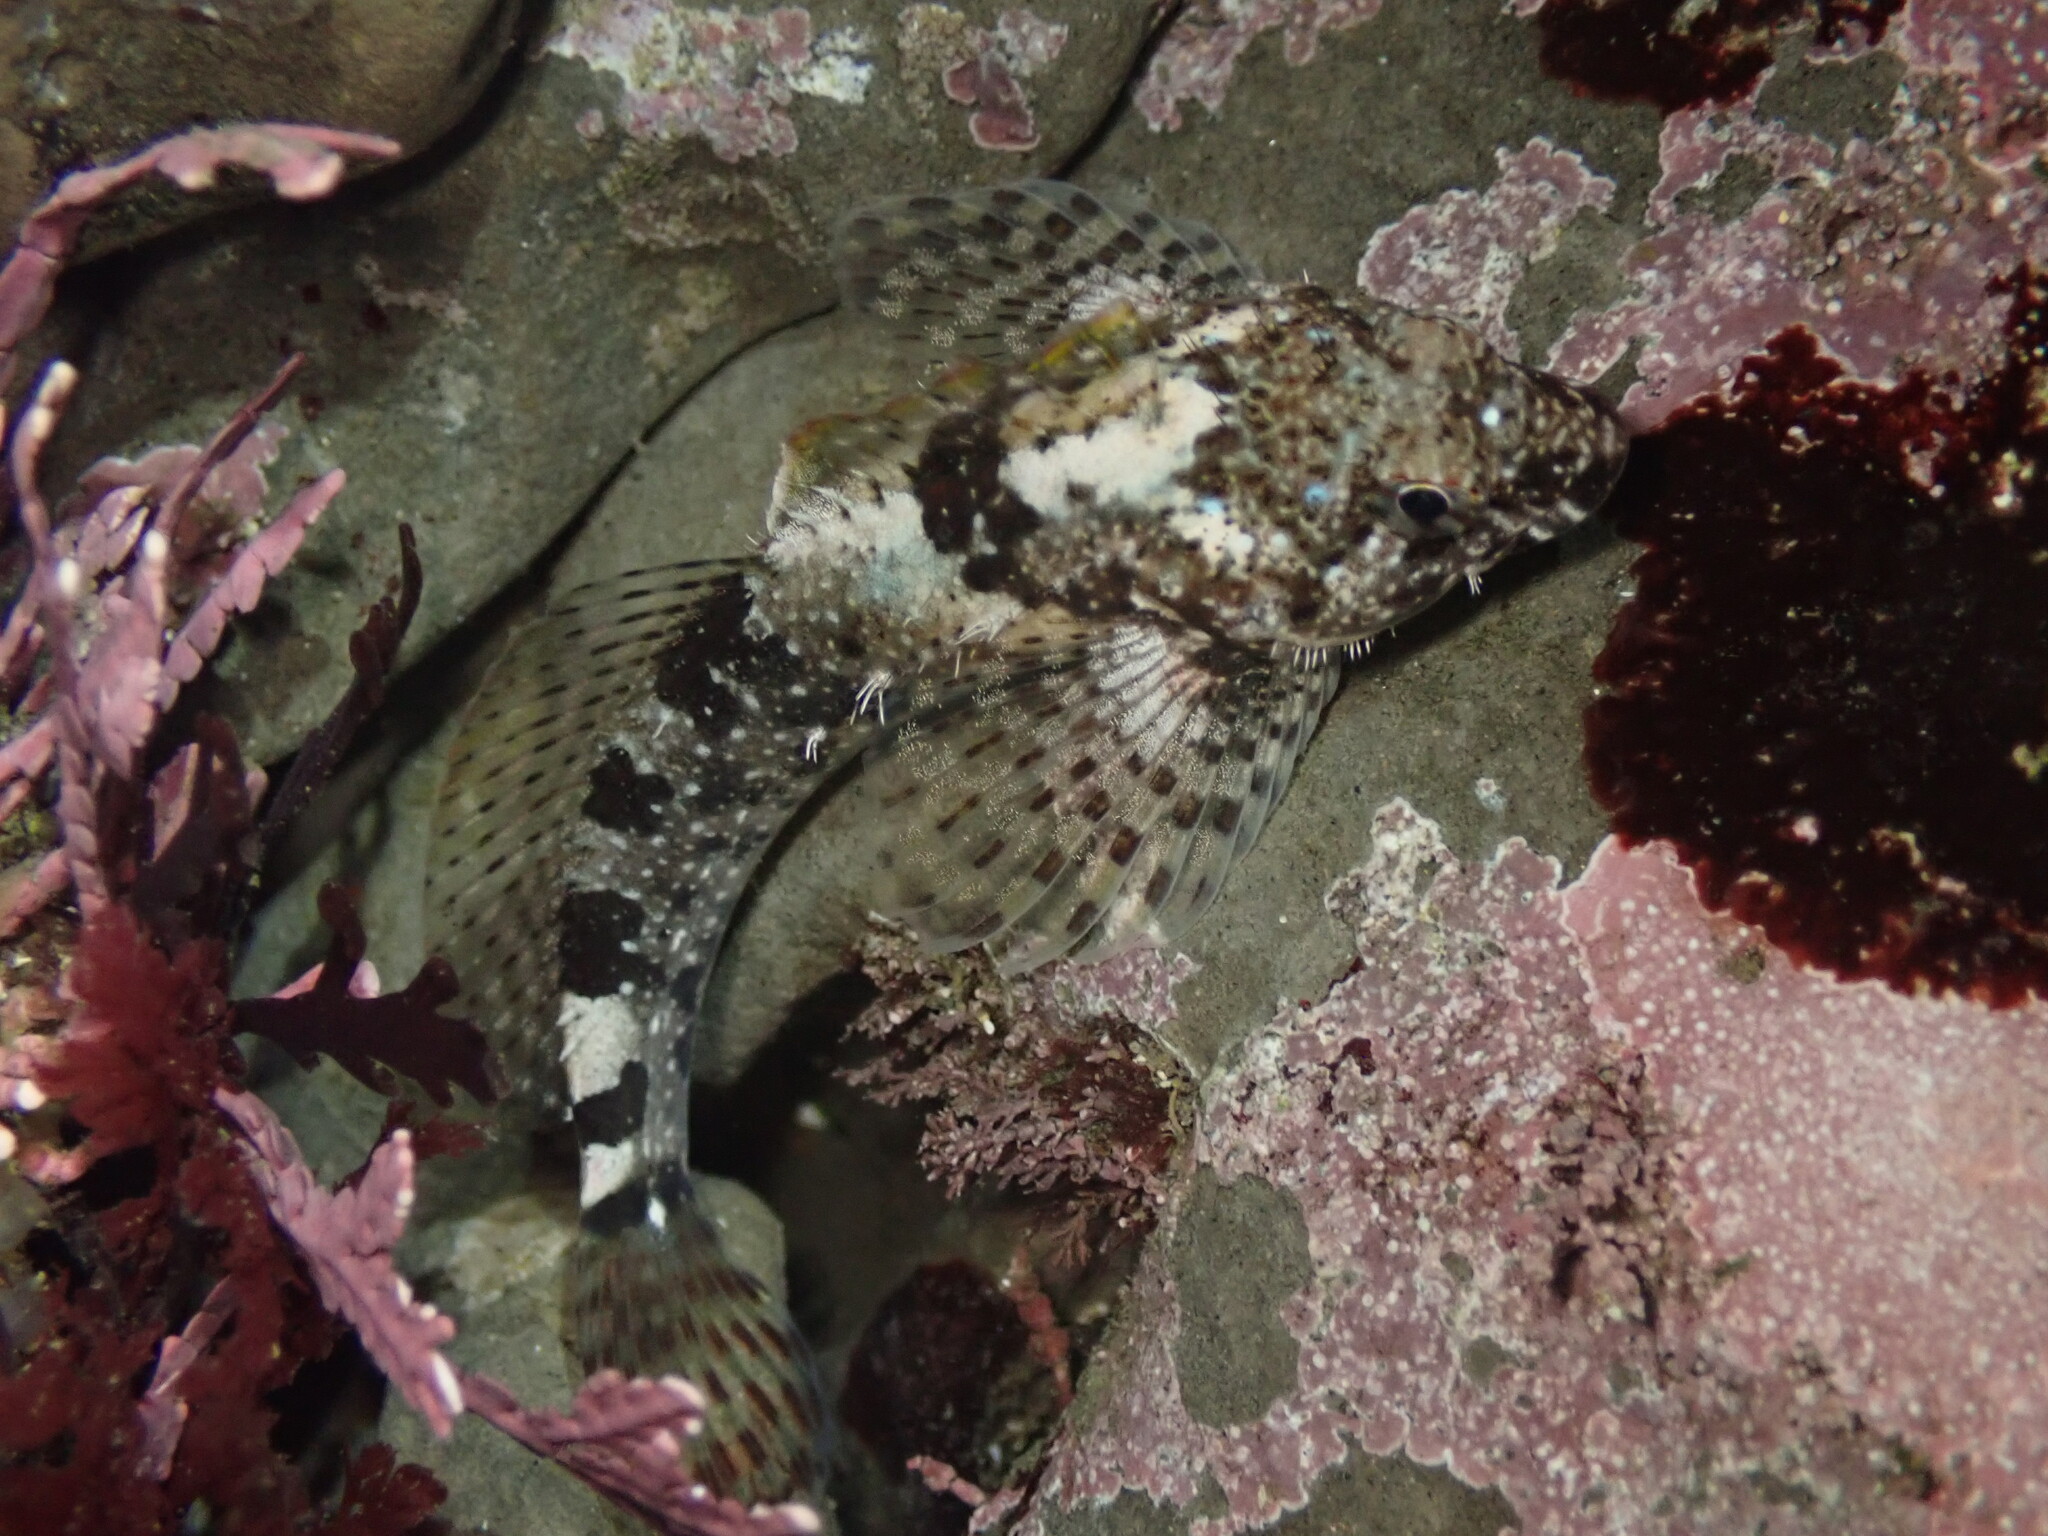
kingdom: Animalia
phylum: Chordata
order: Scorpaeniformes
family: Cottidae
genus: Clinocottus
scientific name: Clinocottus analis
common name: Woolly sculpin
